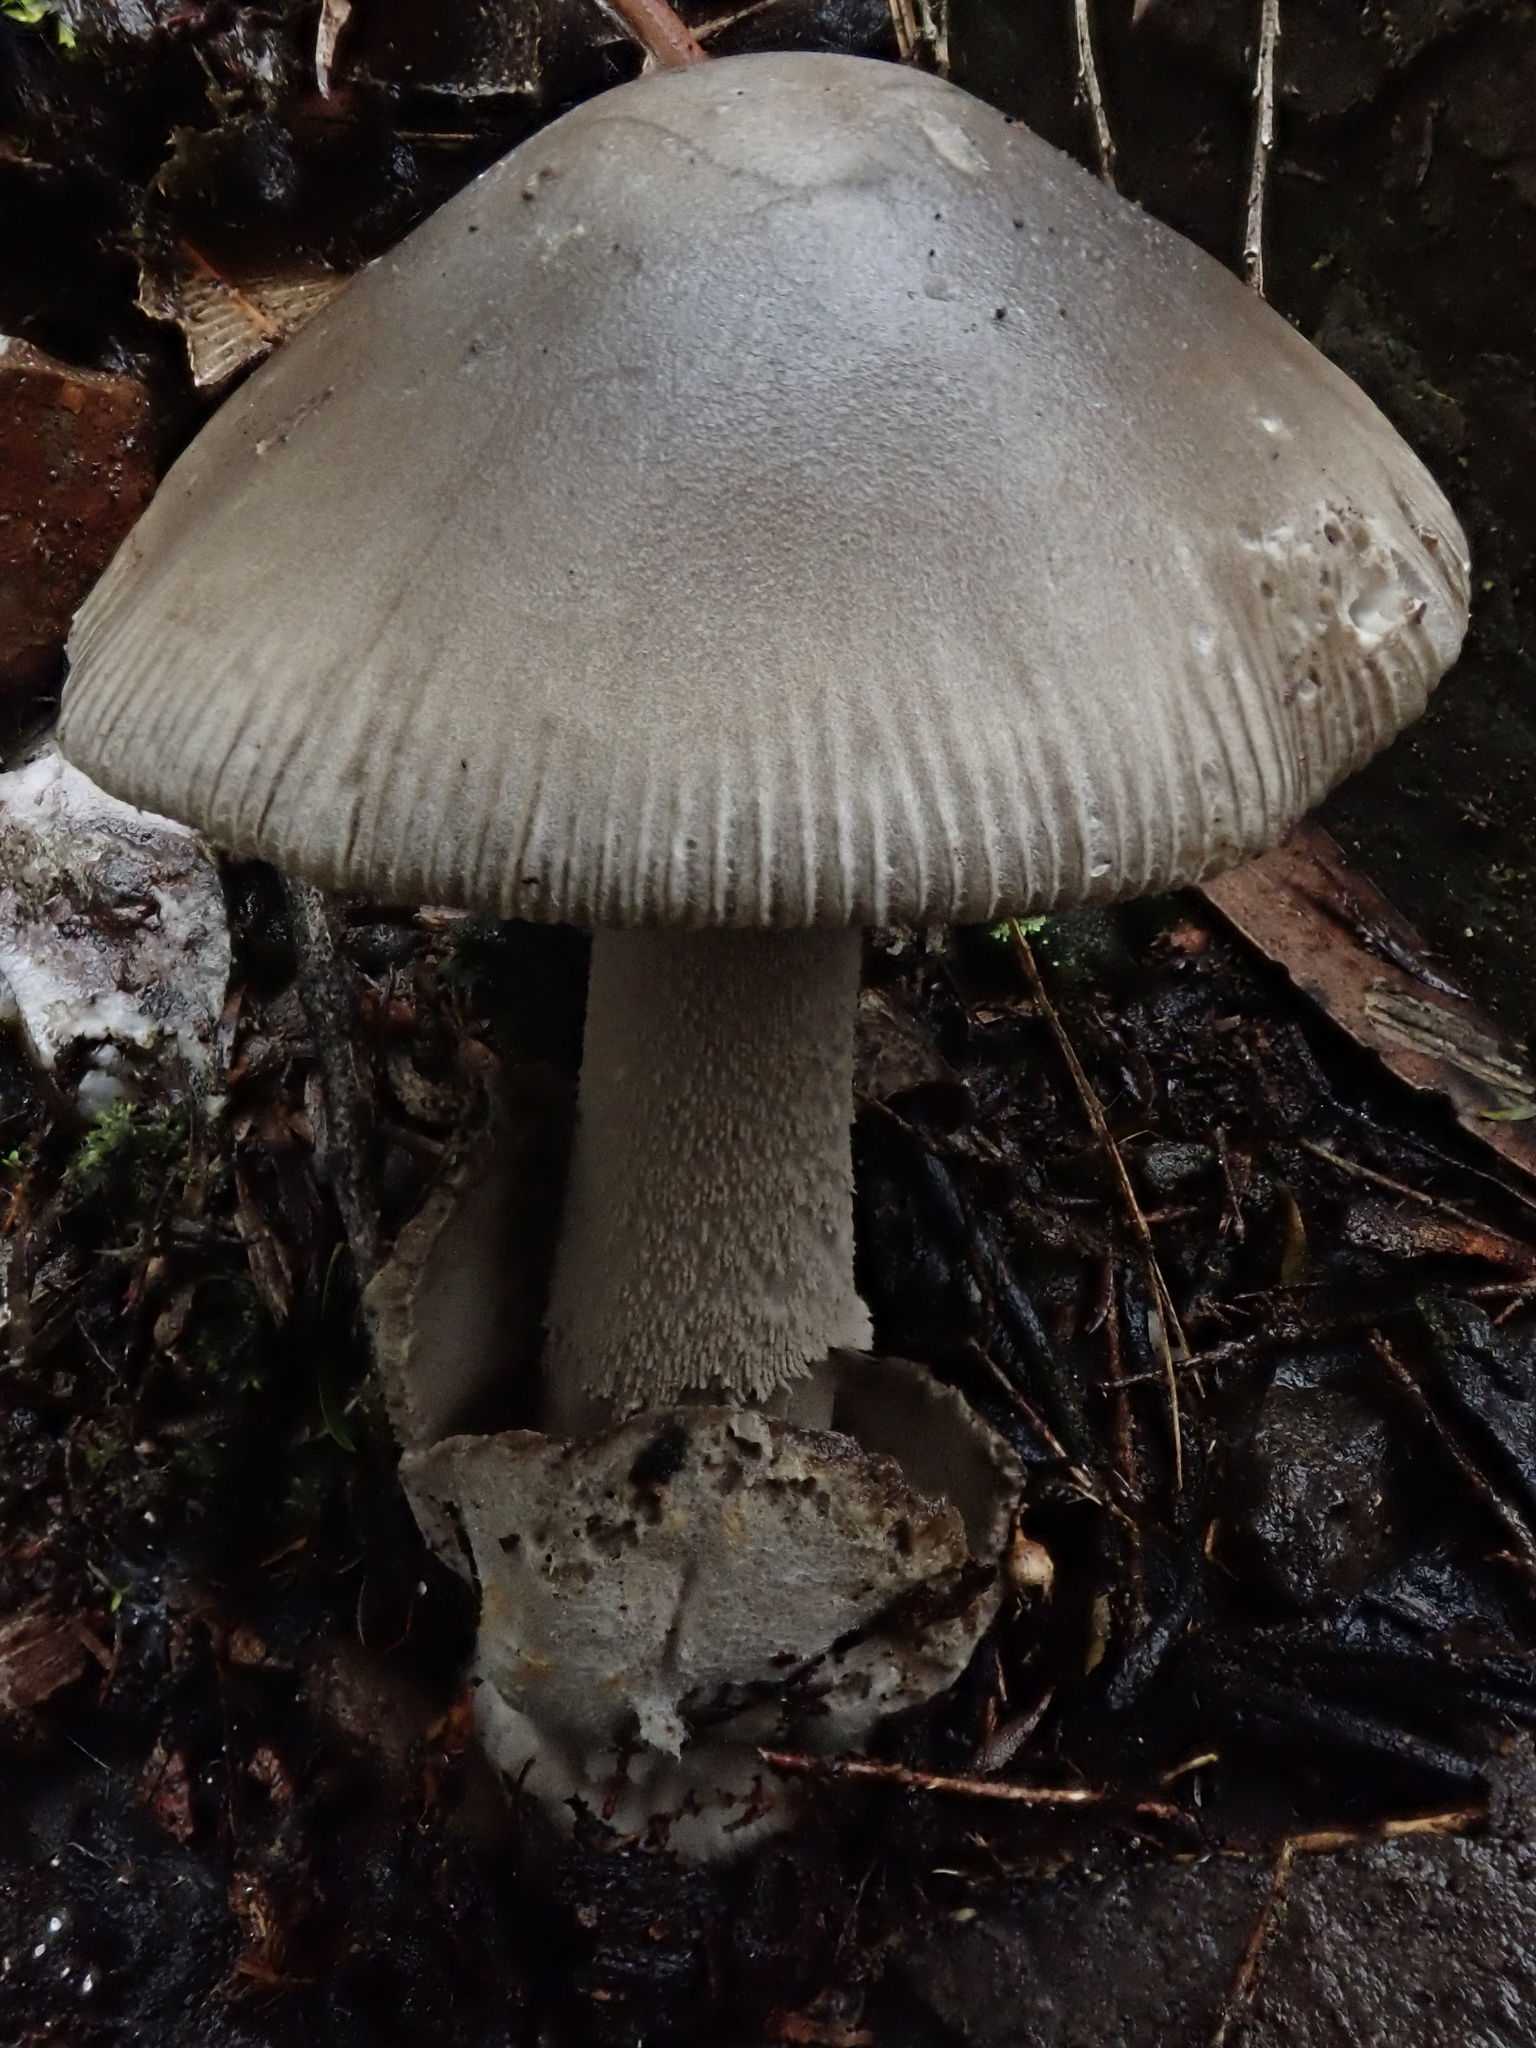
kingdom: Fungi
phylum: Basidiomycota
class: Agaricomycetes
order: Agaricales
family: Amanitaceae
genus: Amanita
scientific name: Amanita cheelii
